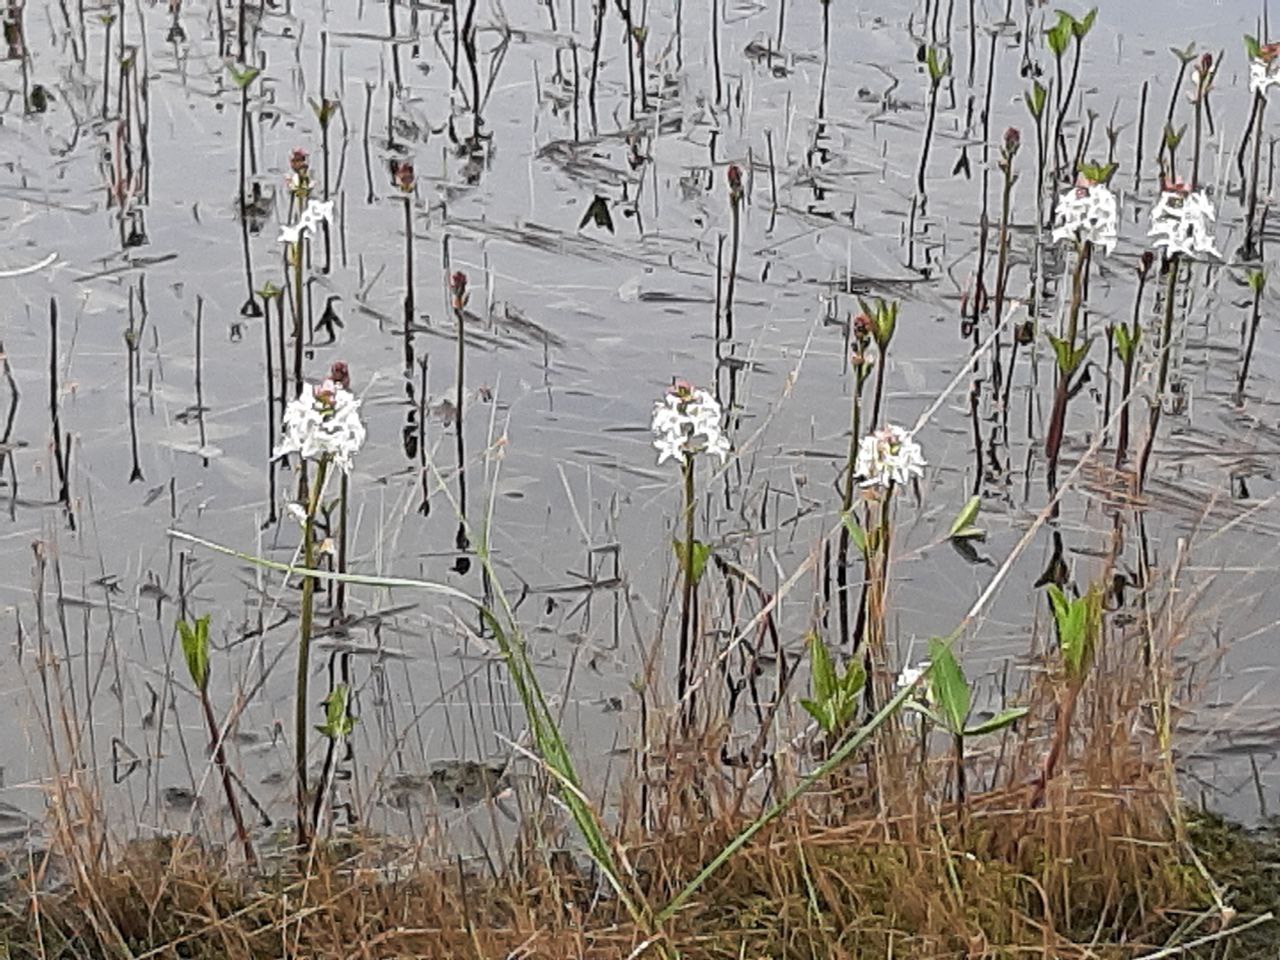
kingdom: Plantae
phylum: Tracheophyta
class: Magnoliopsida
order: Asterales
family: Menyanthaceae
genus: Menyanthes
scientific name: Menyanthes trifoliata
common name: Bogbean
